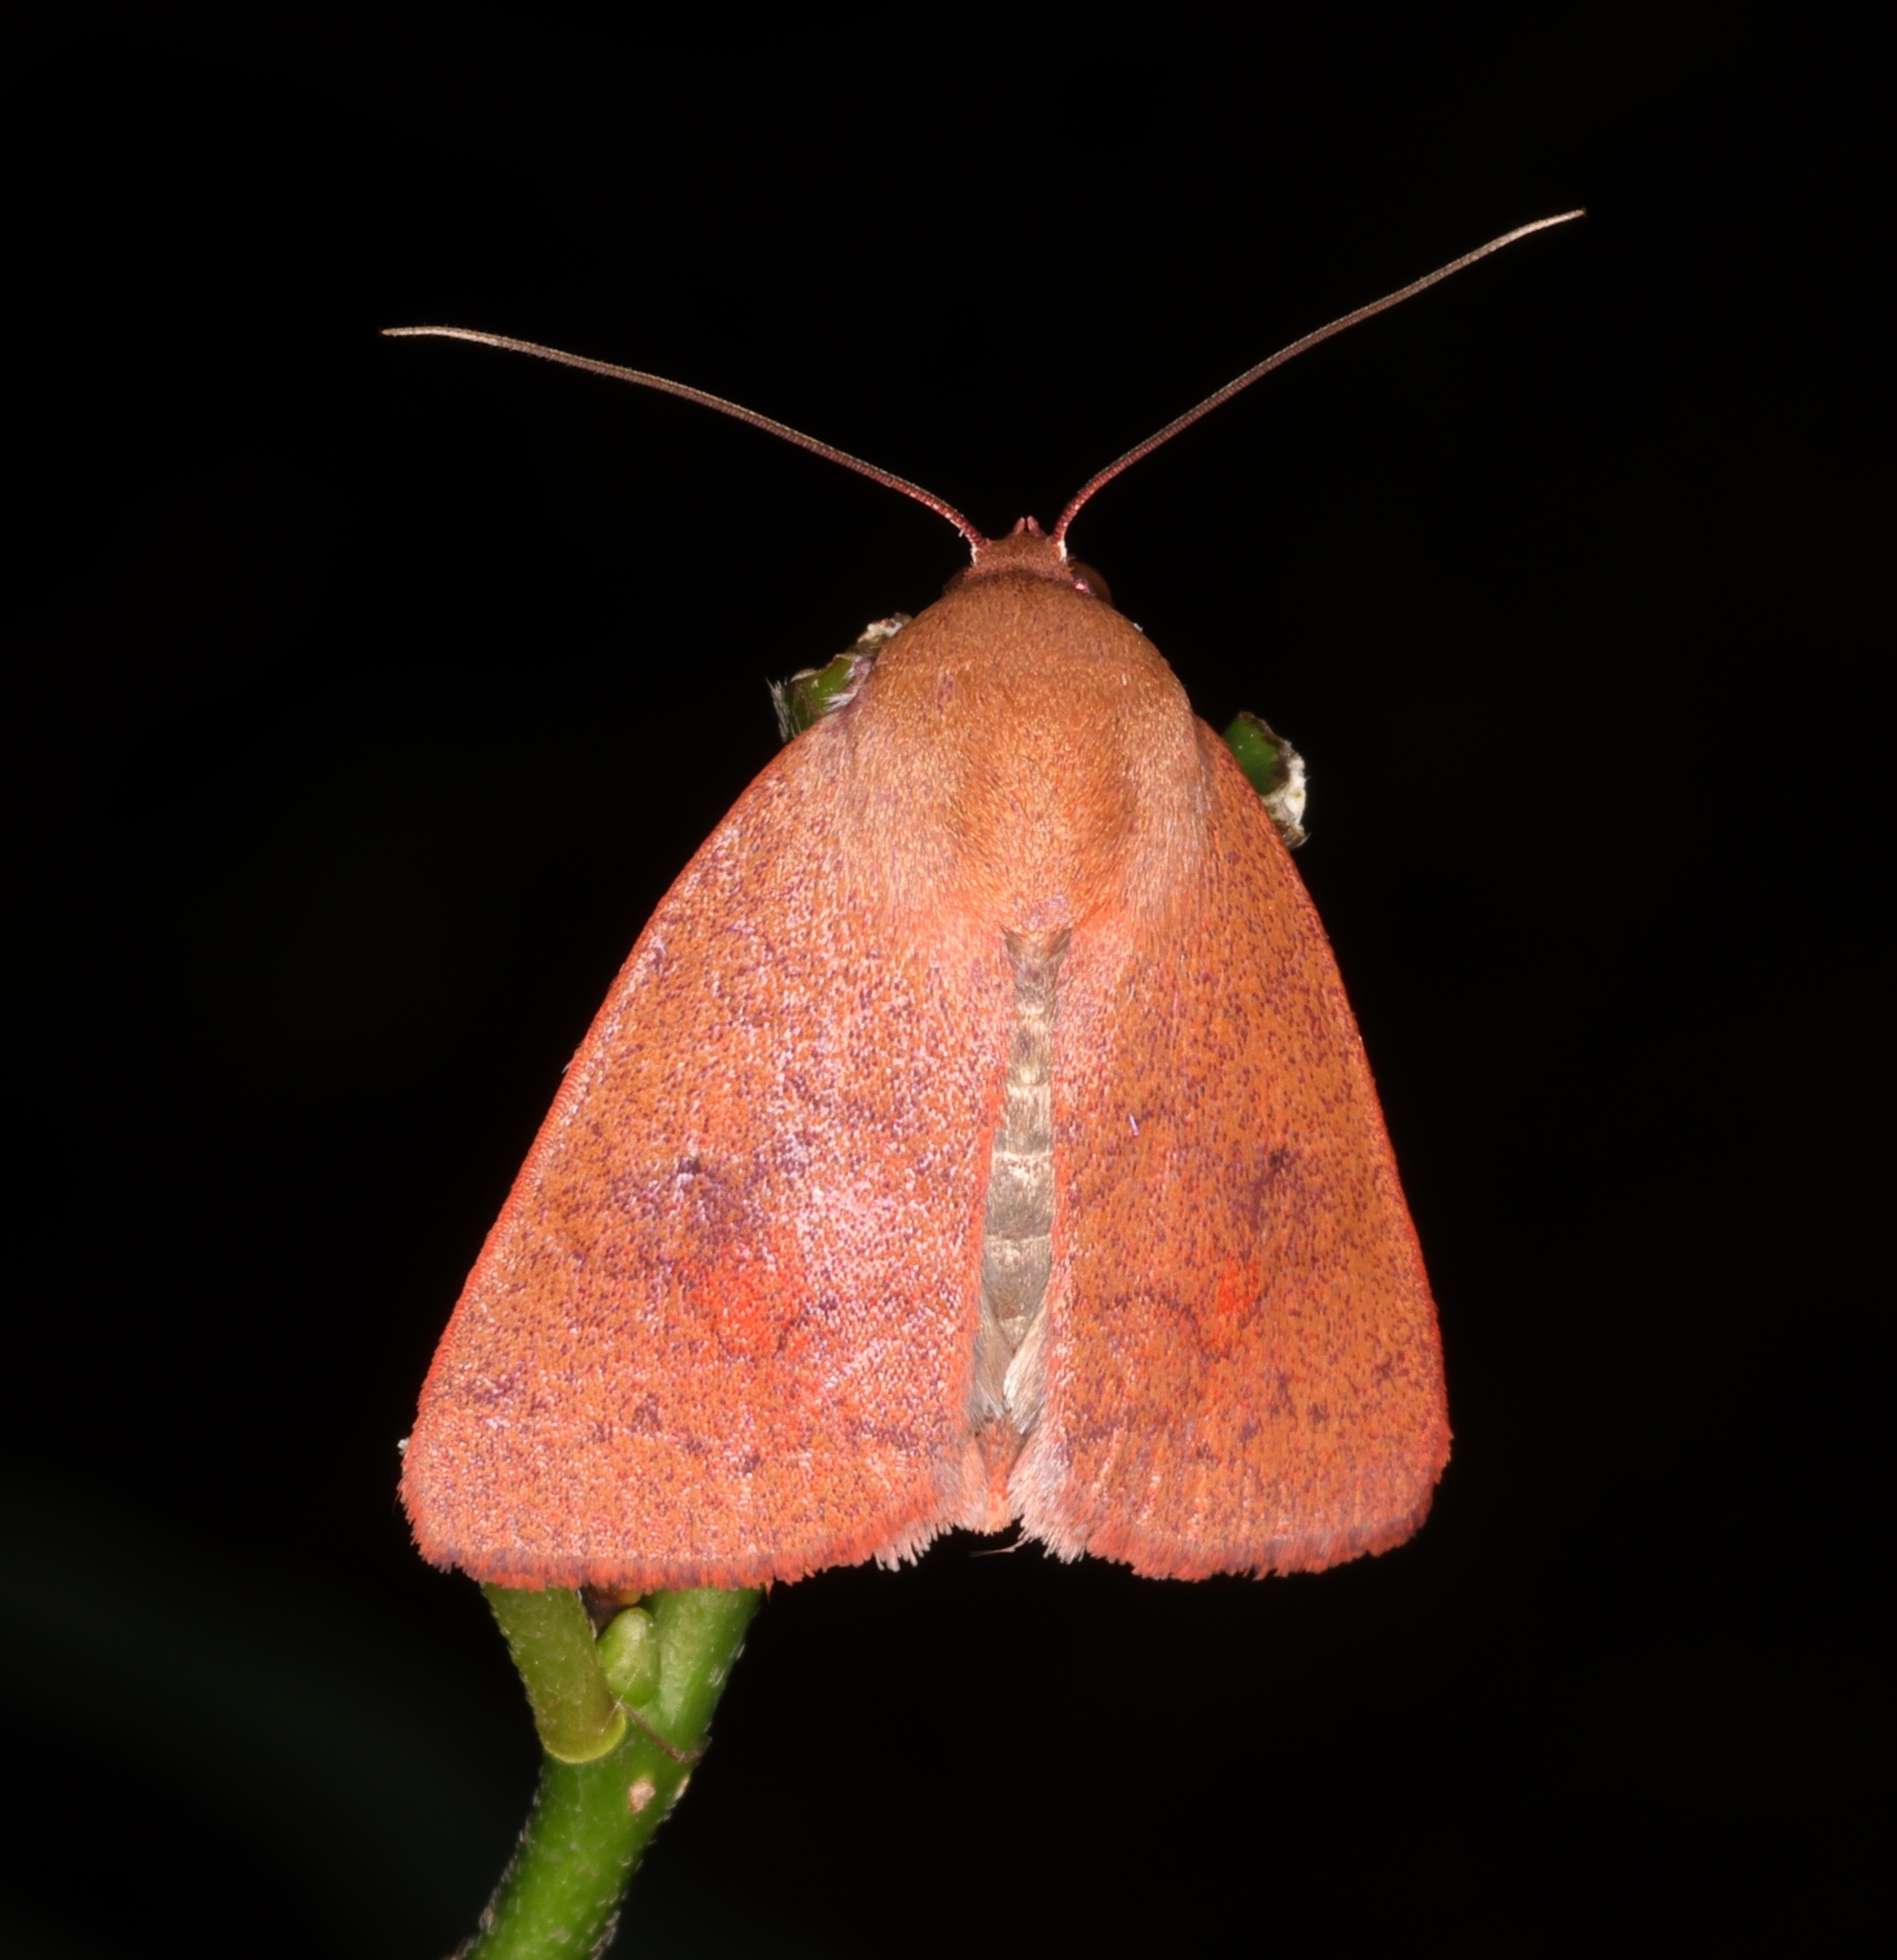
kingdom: Animalia
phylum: Arthropoda
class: Insecta
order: Lepidoptera
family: Nolidae
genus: Calymera
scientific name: Calymera
